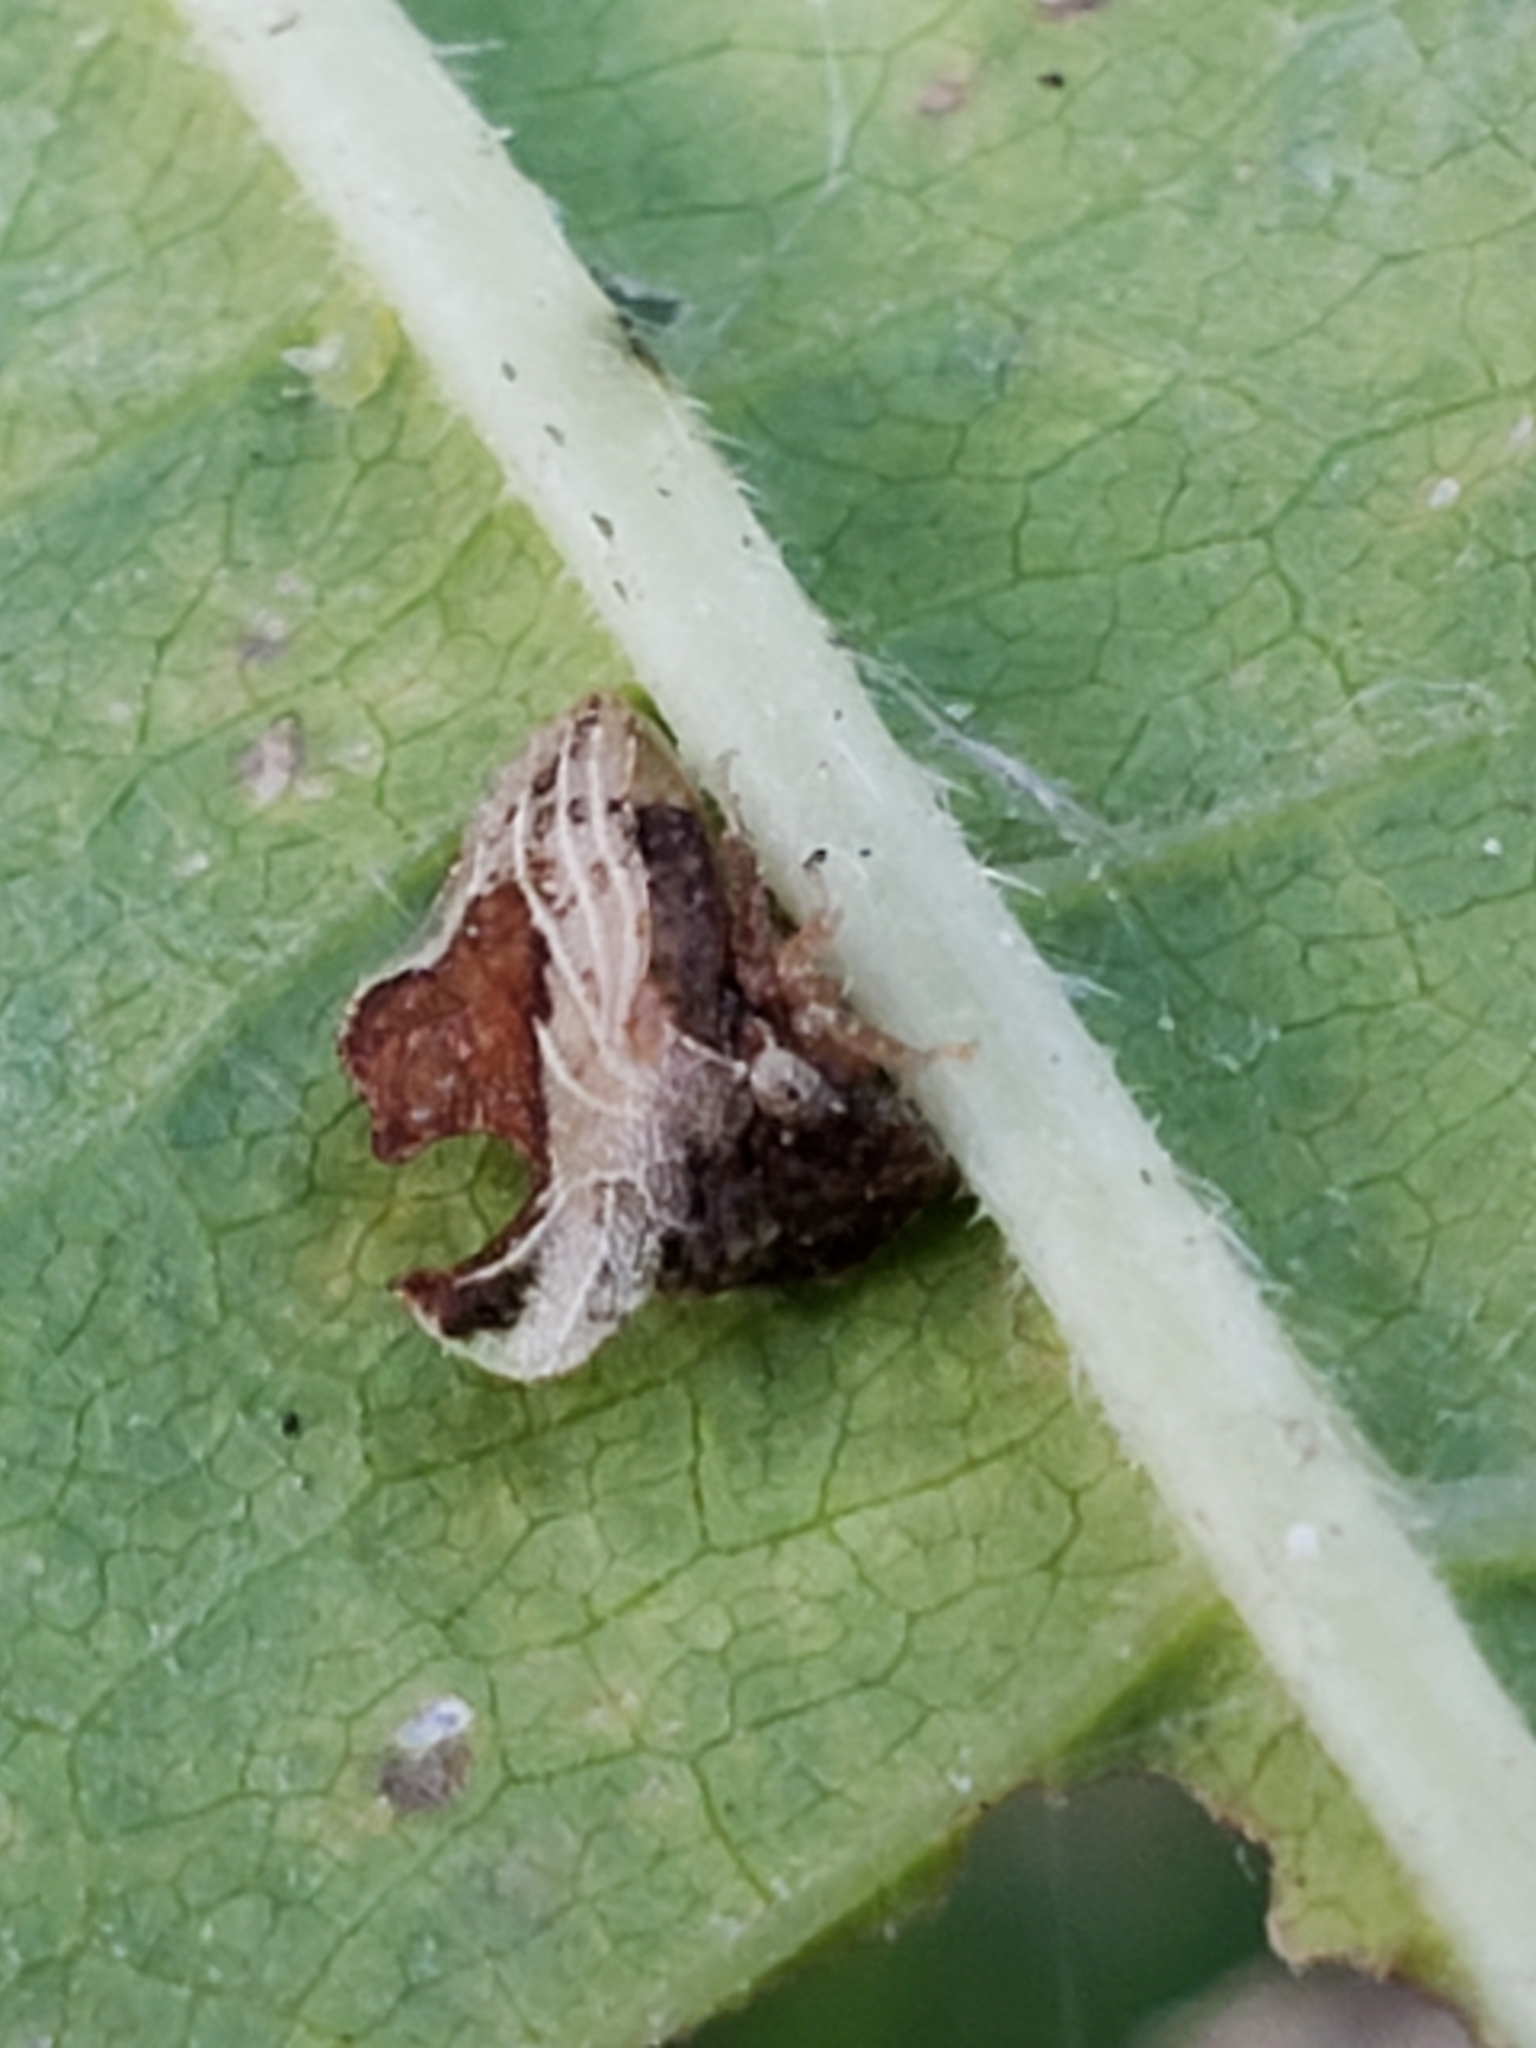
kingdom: Animalia
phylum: Arthropoda
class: Insecta
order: Hemiptera
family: Membracidae
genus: Entylia
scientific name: Entylia carinata
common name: Keeled treehopper
